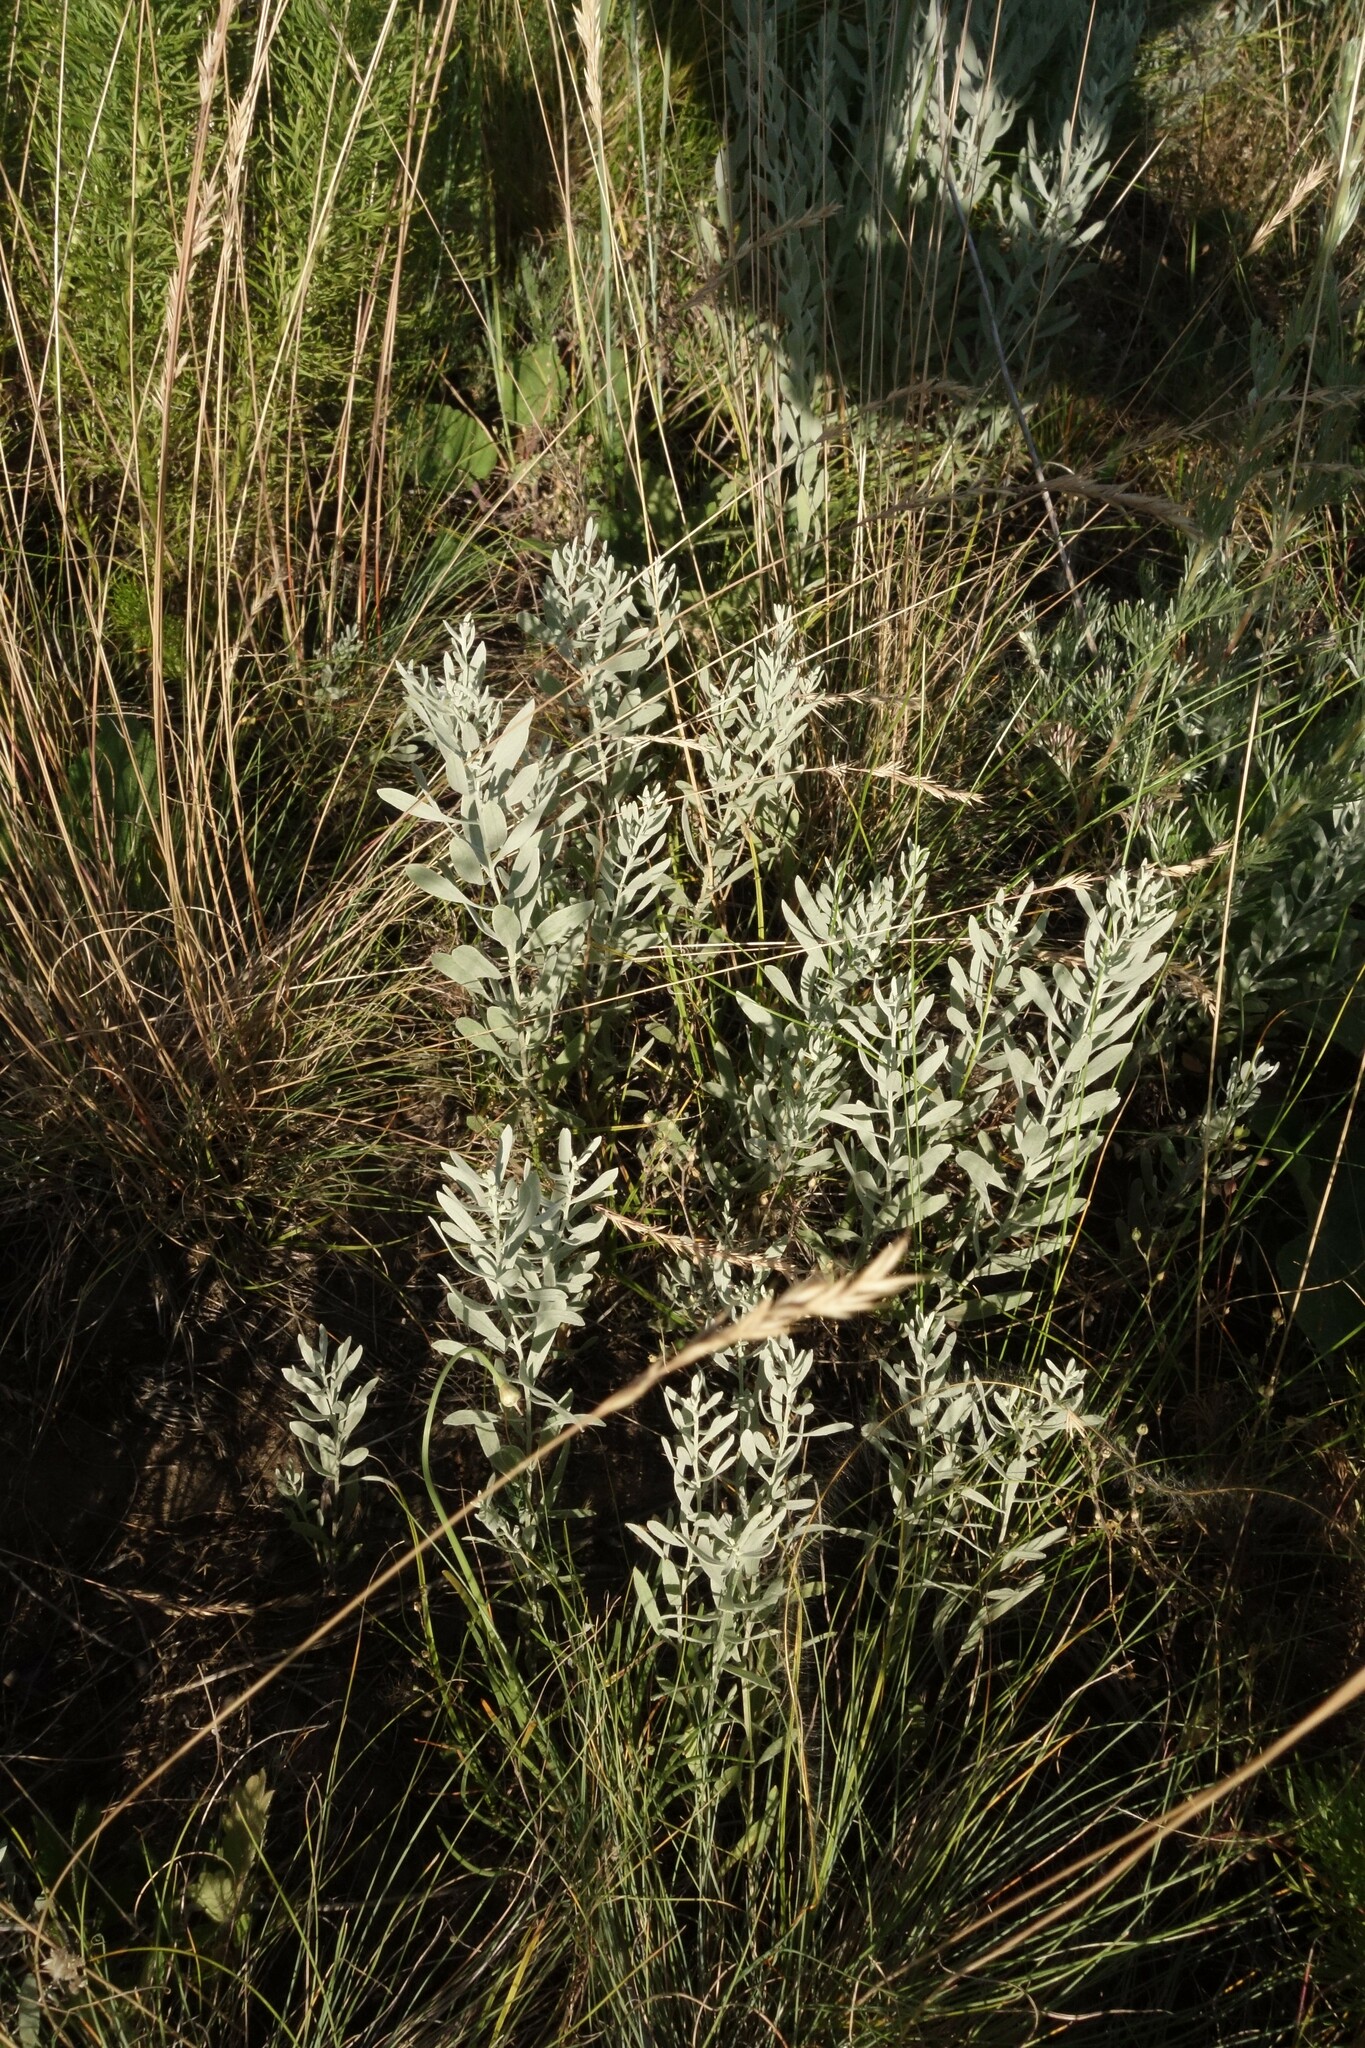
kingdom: Plantae
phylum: Tracheophyta
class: Magnoliopsida
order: Asterales
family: Asteraceae
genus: Galatella
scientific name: Galatella villosa
